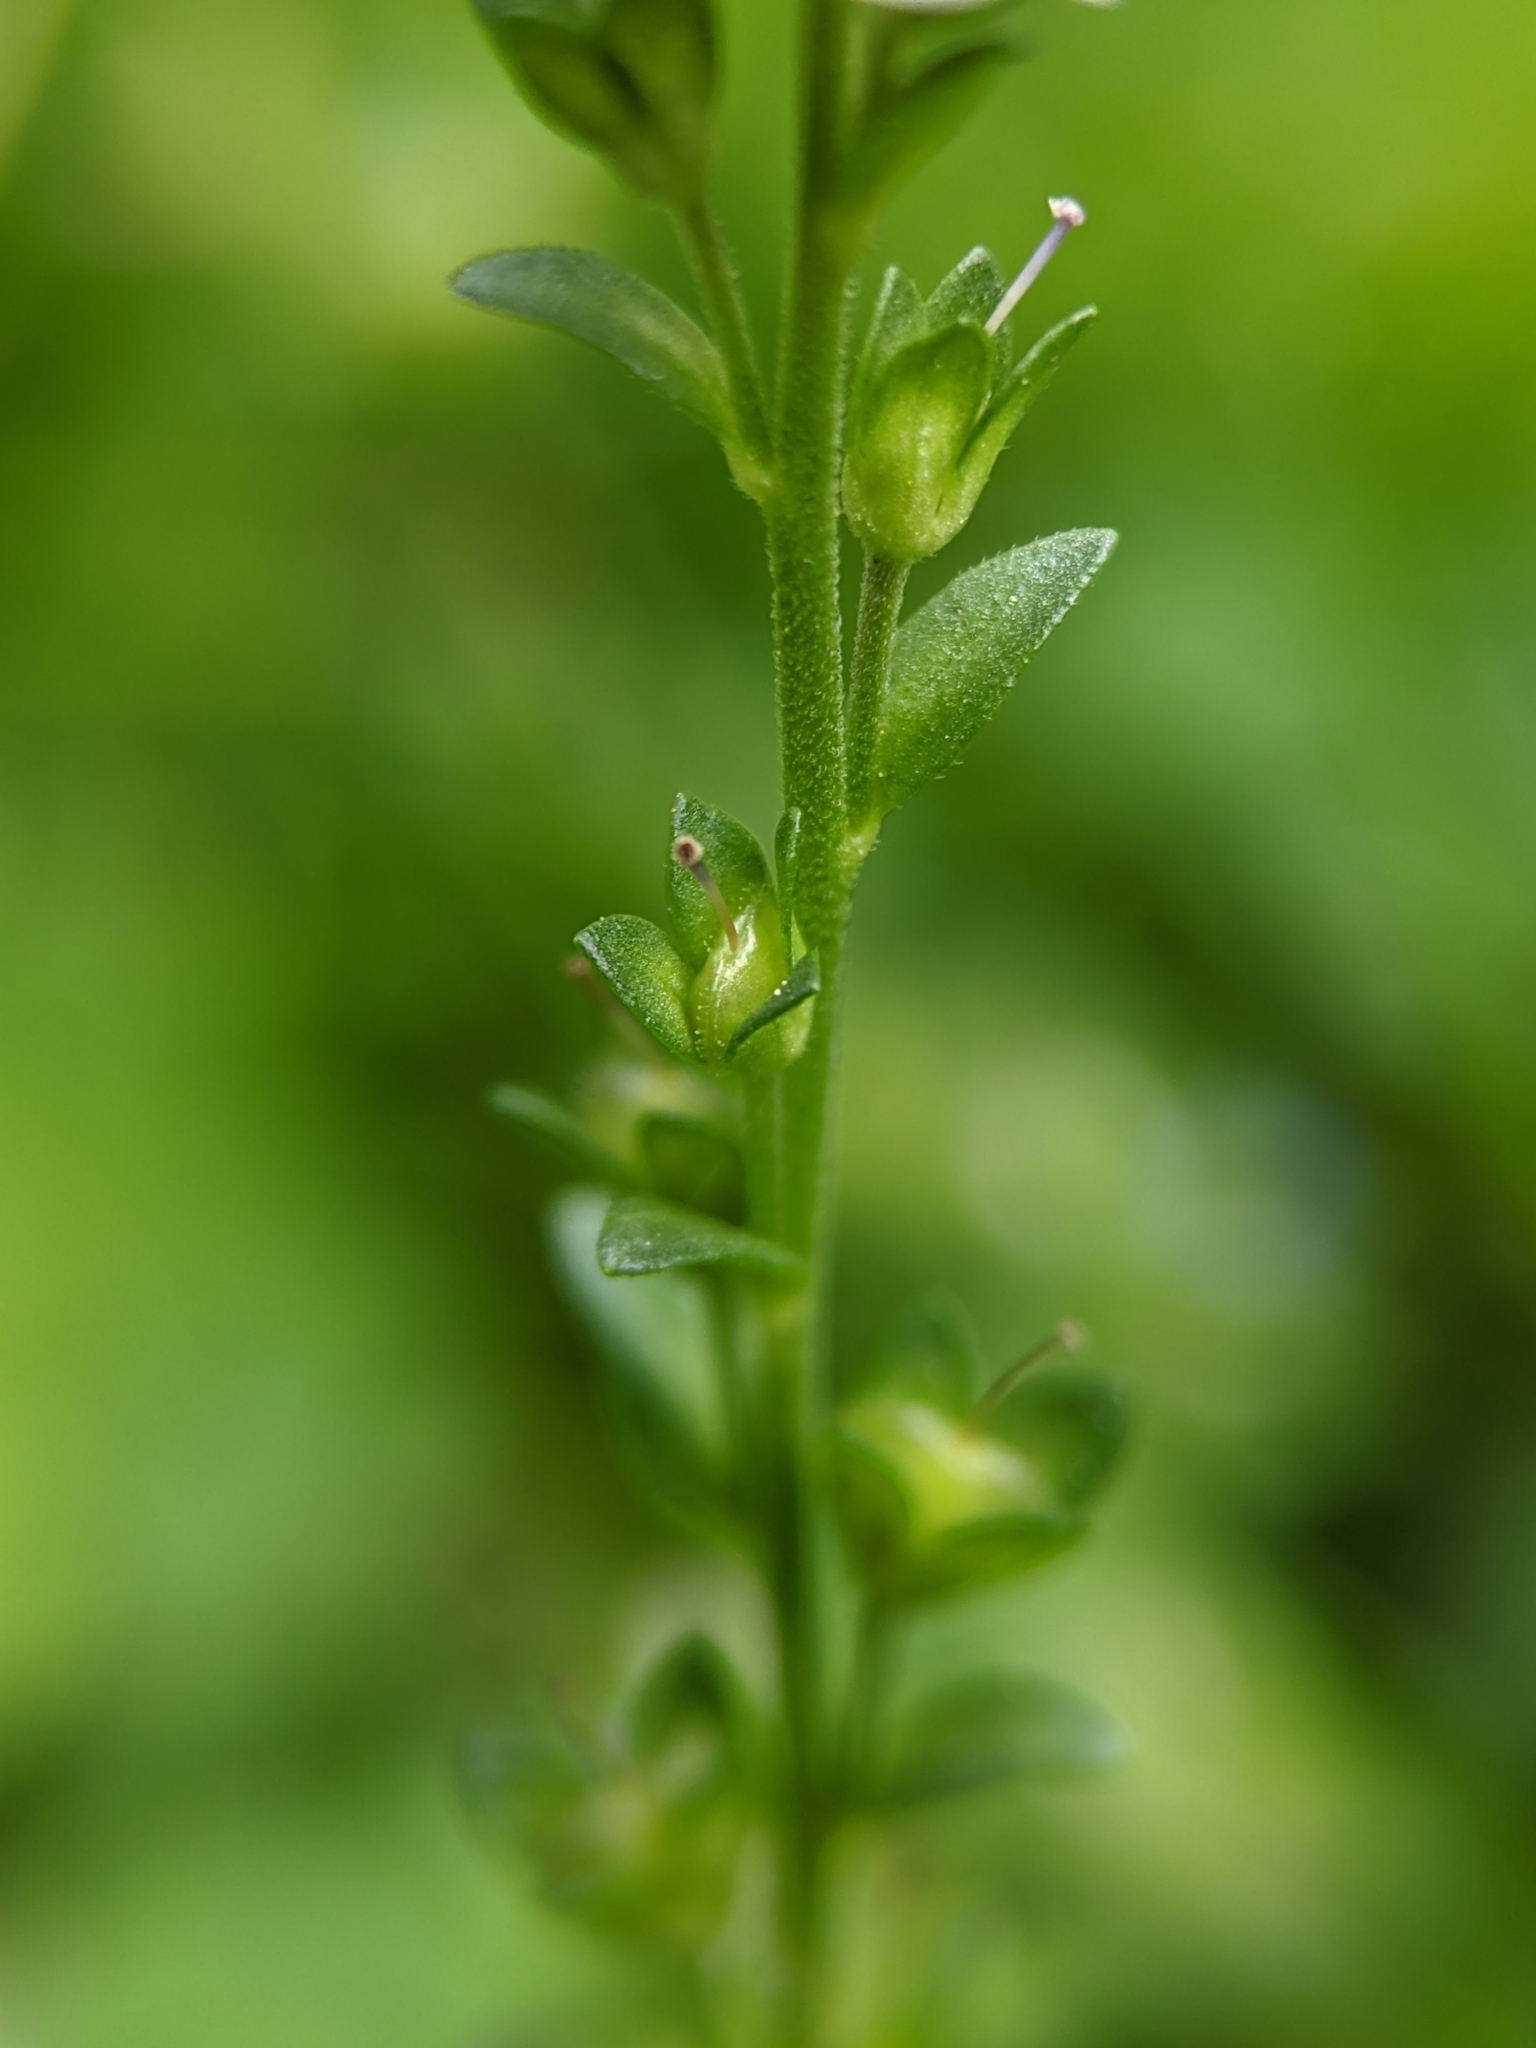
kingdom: Plantae
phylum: Tracheophyta
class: Magnoliopsida
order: Lamiales
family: Plantaginaceae
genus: Veronica
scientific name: Veronica serpyllifolia
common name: Thyme-leaved speedwell
